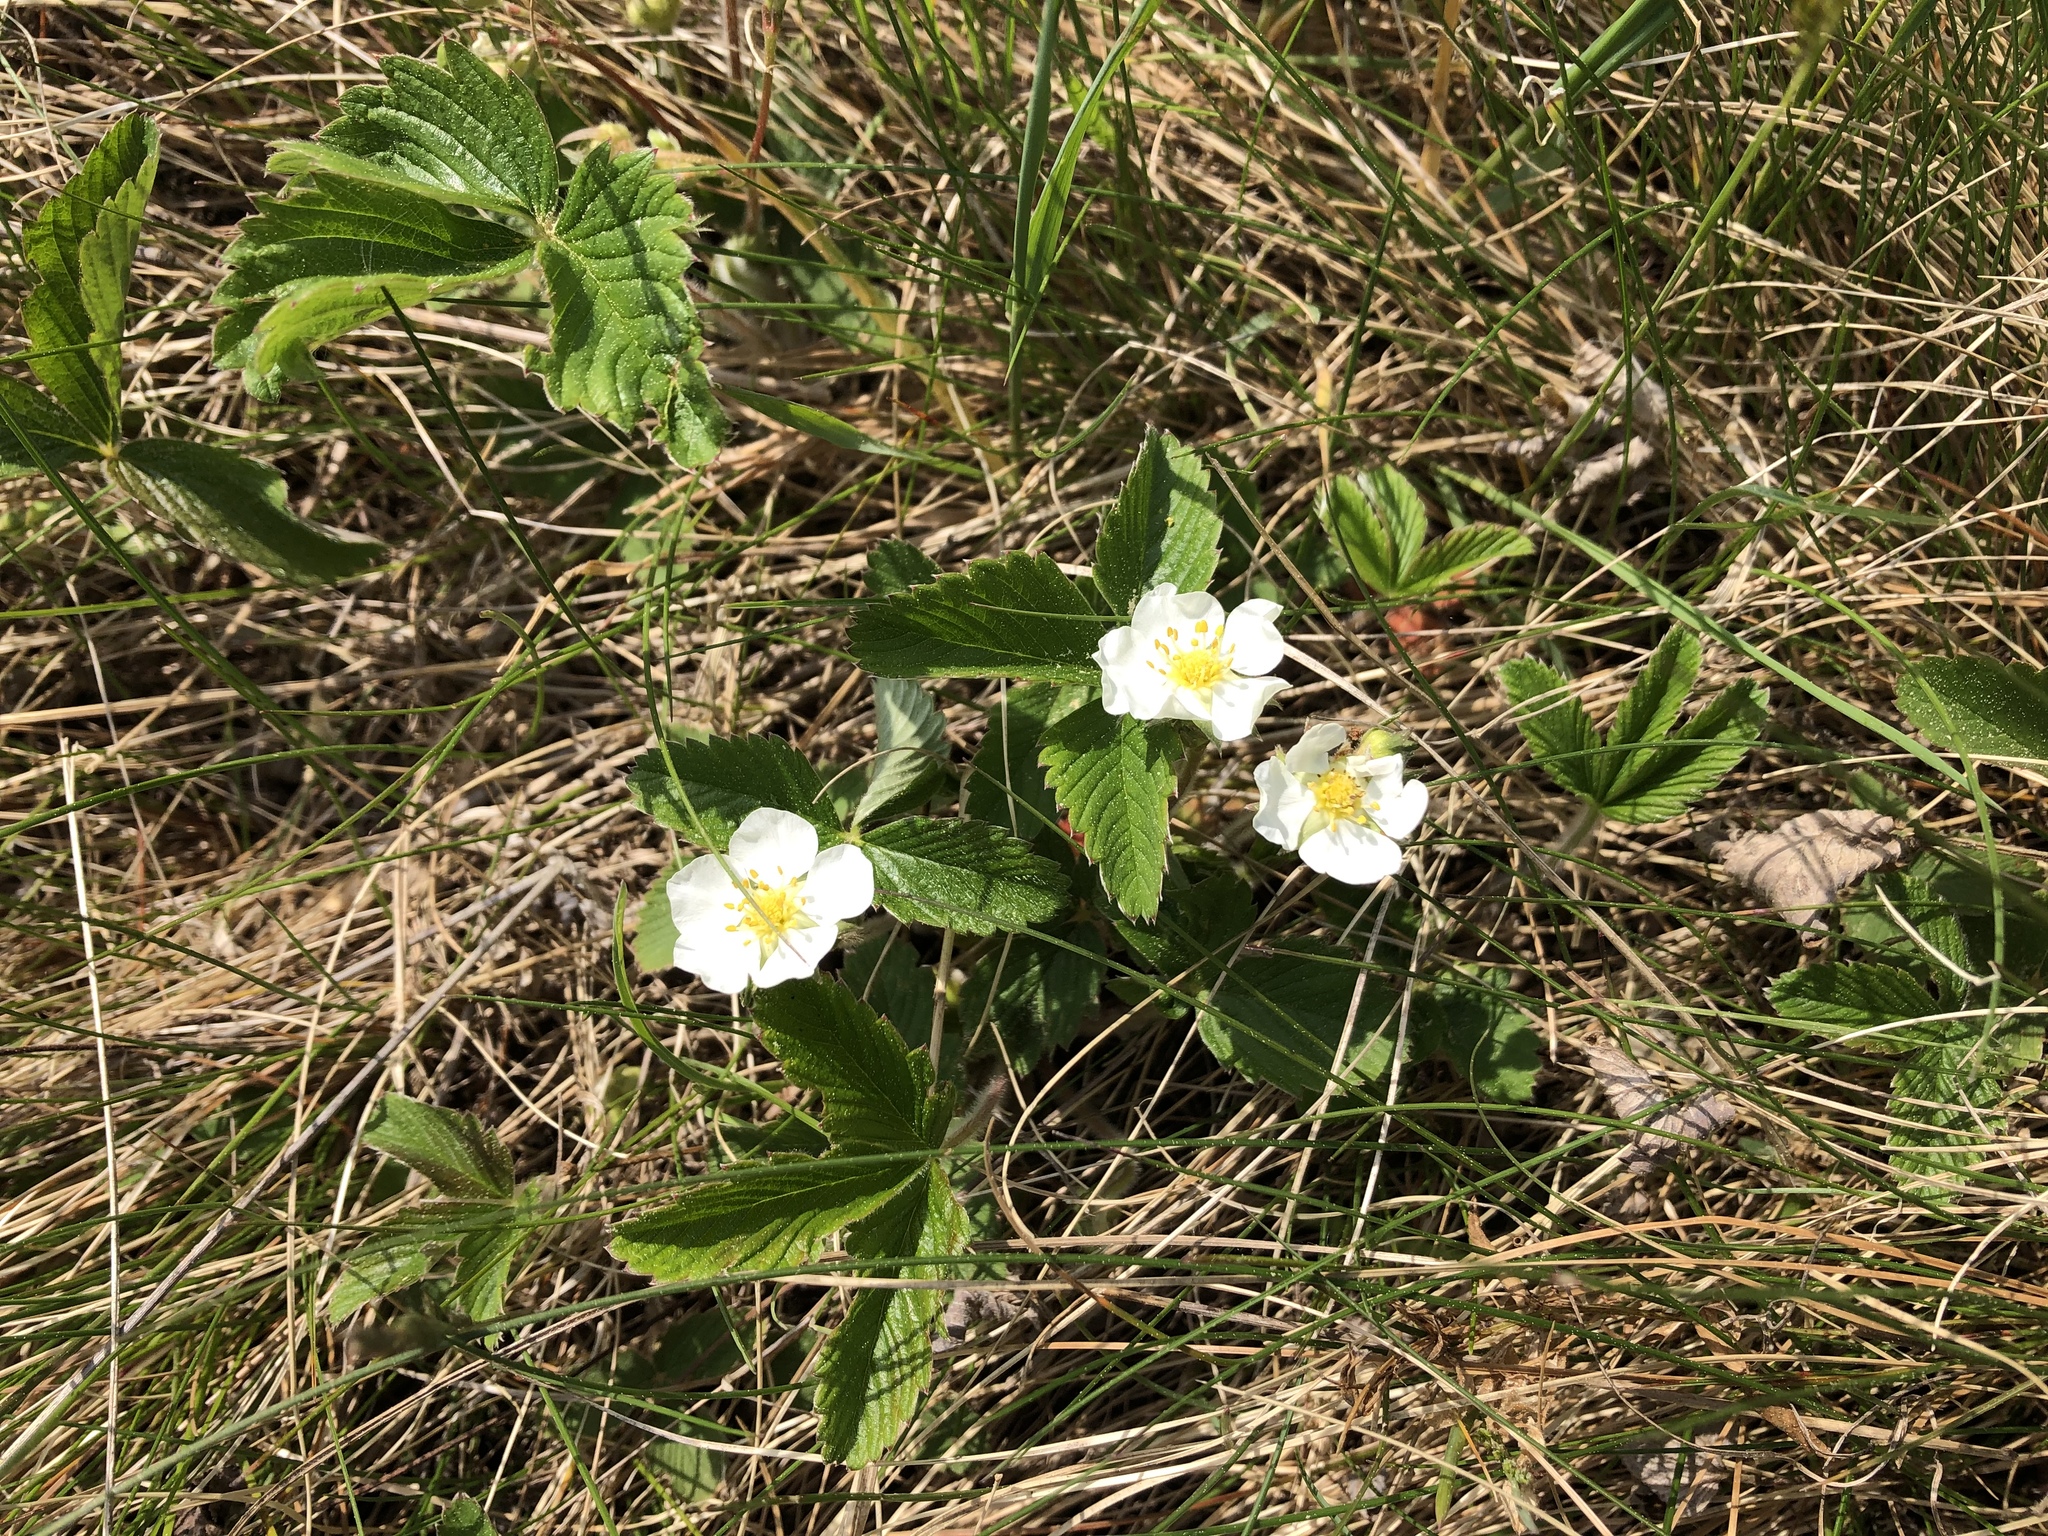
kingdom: Plantae
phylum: Tracheophyta
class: Magnoliopsida
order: Rosales
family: Rosaceae
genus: Fragaria
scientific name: Fragaria viridis
